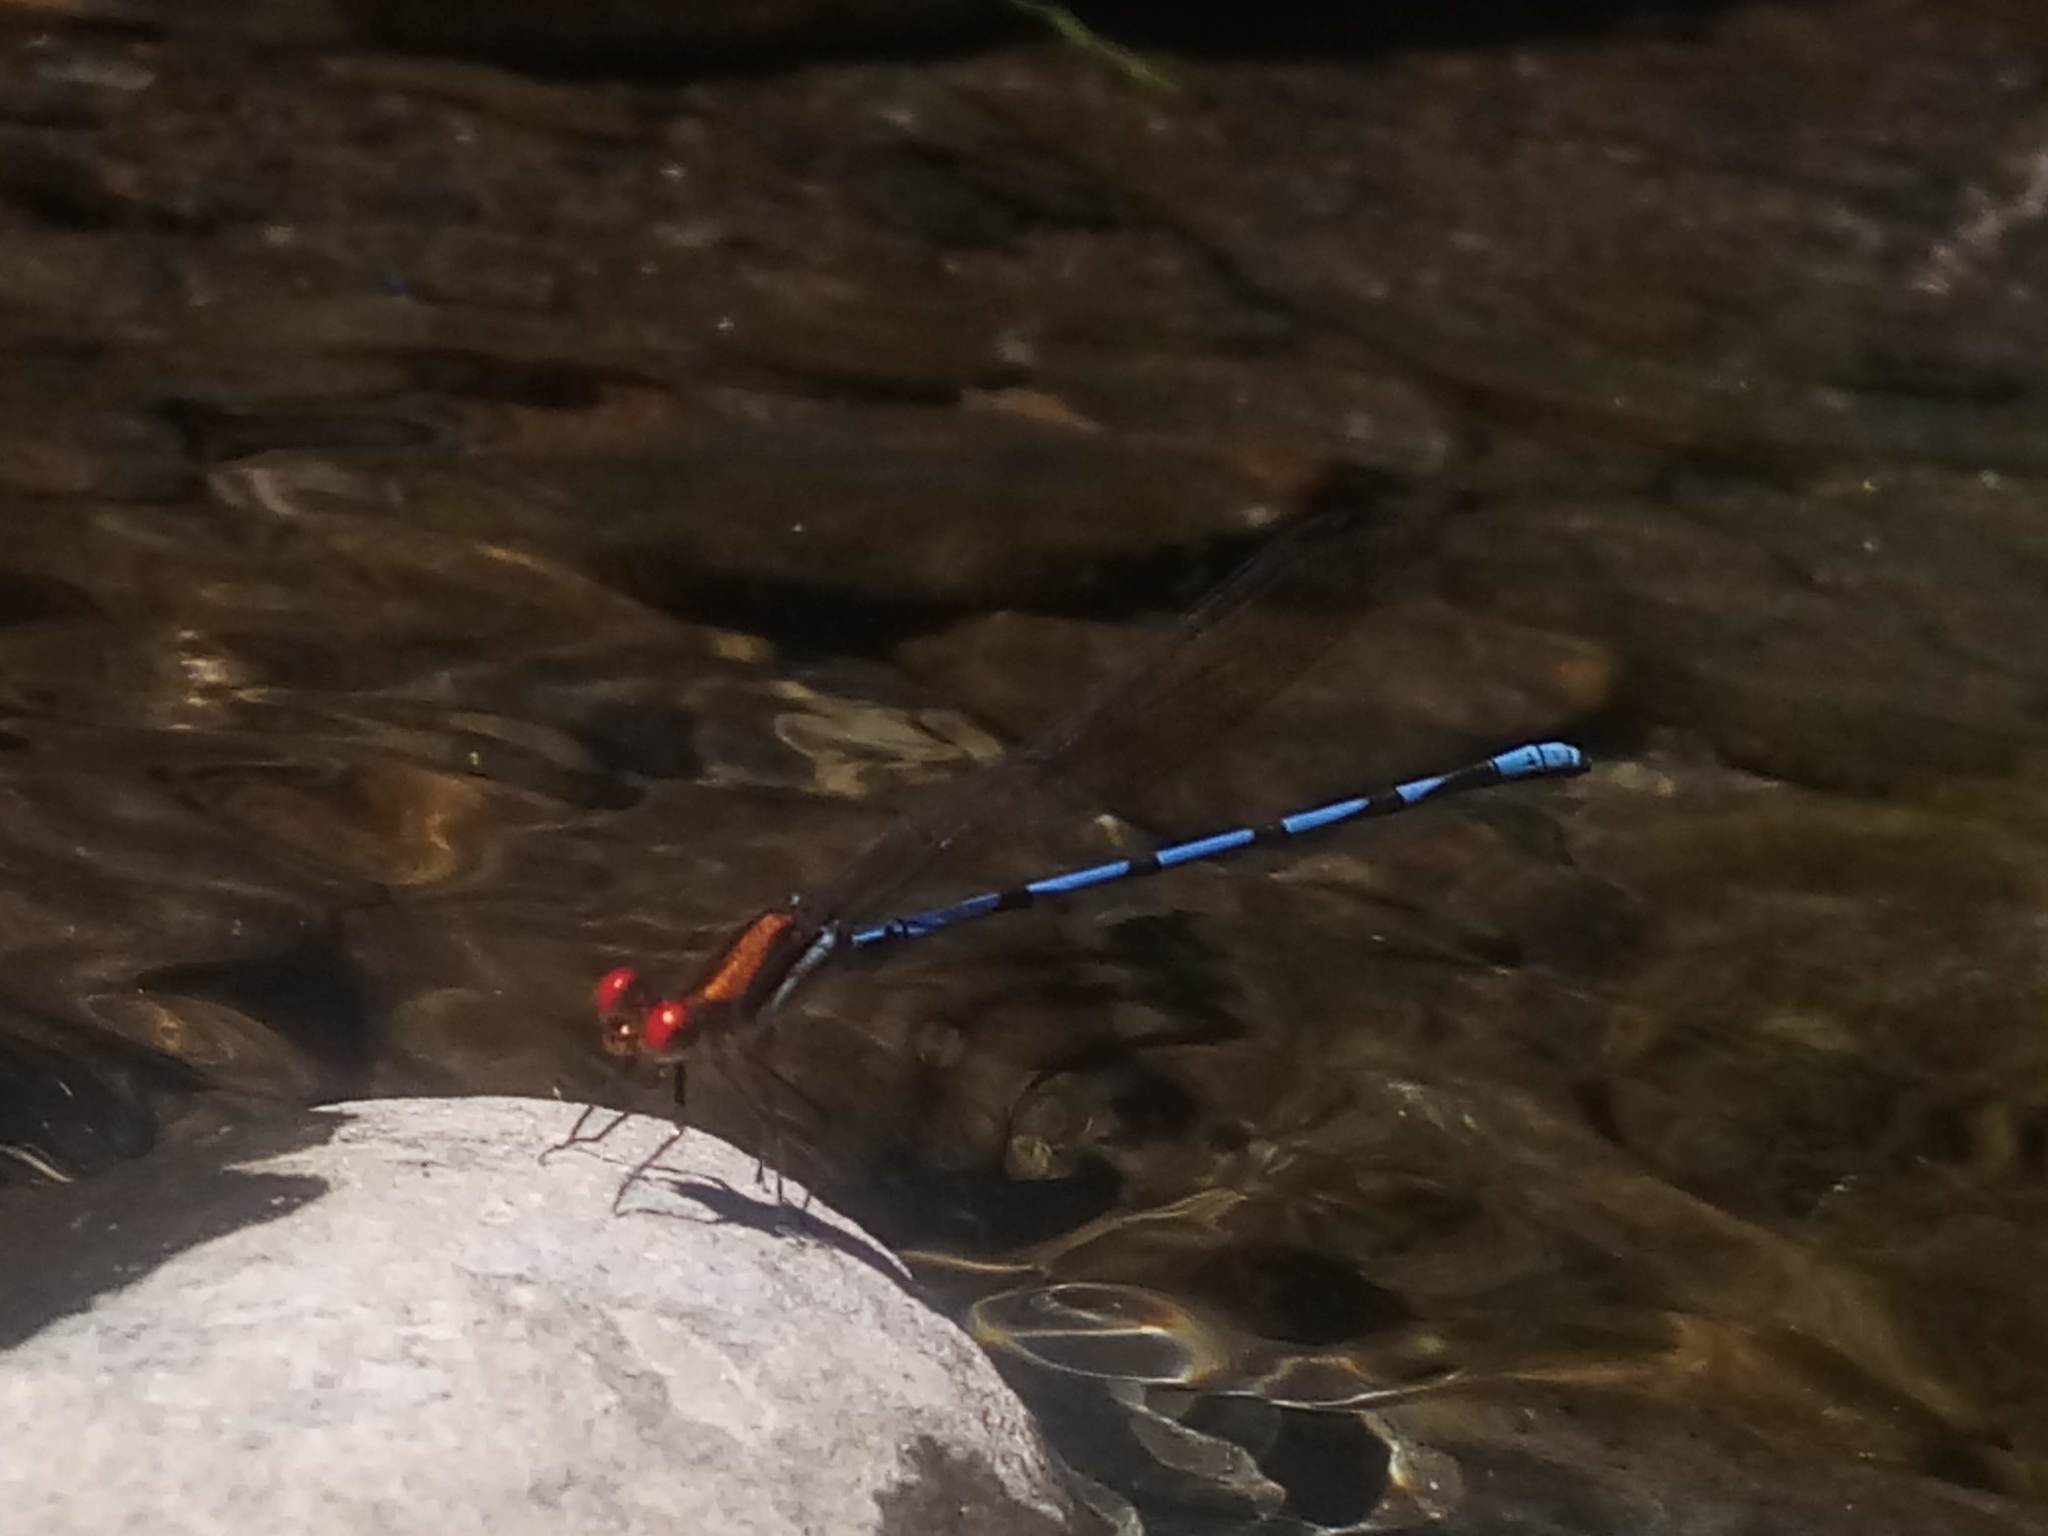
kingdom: Animalia
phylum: Arthropoda
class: Insecta
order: Odonata
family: Coenagrionidae
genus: Argia
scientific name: Argia joergenseni
